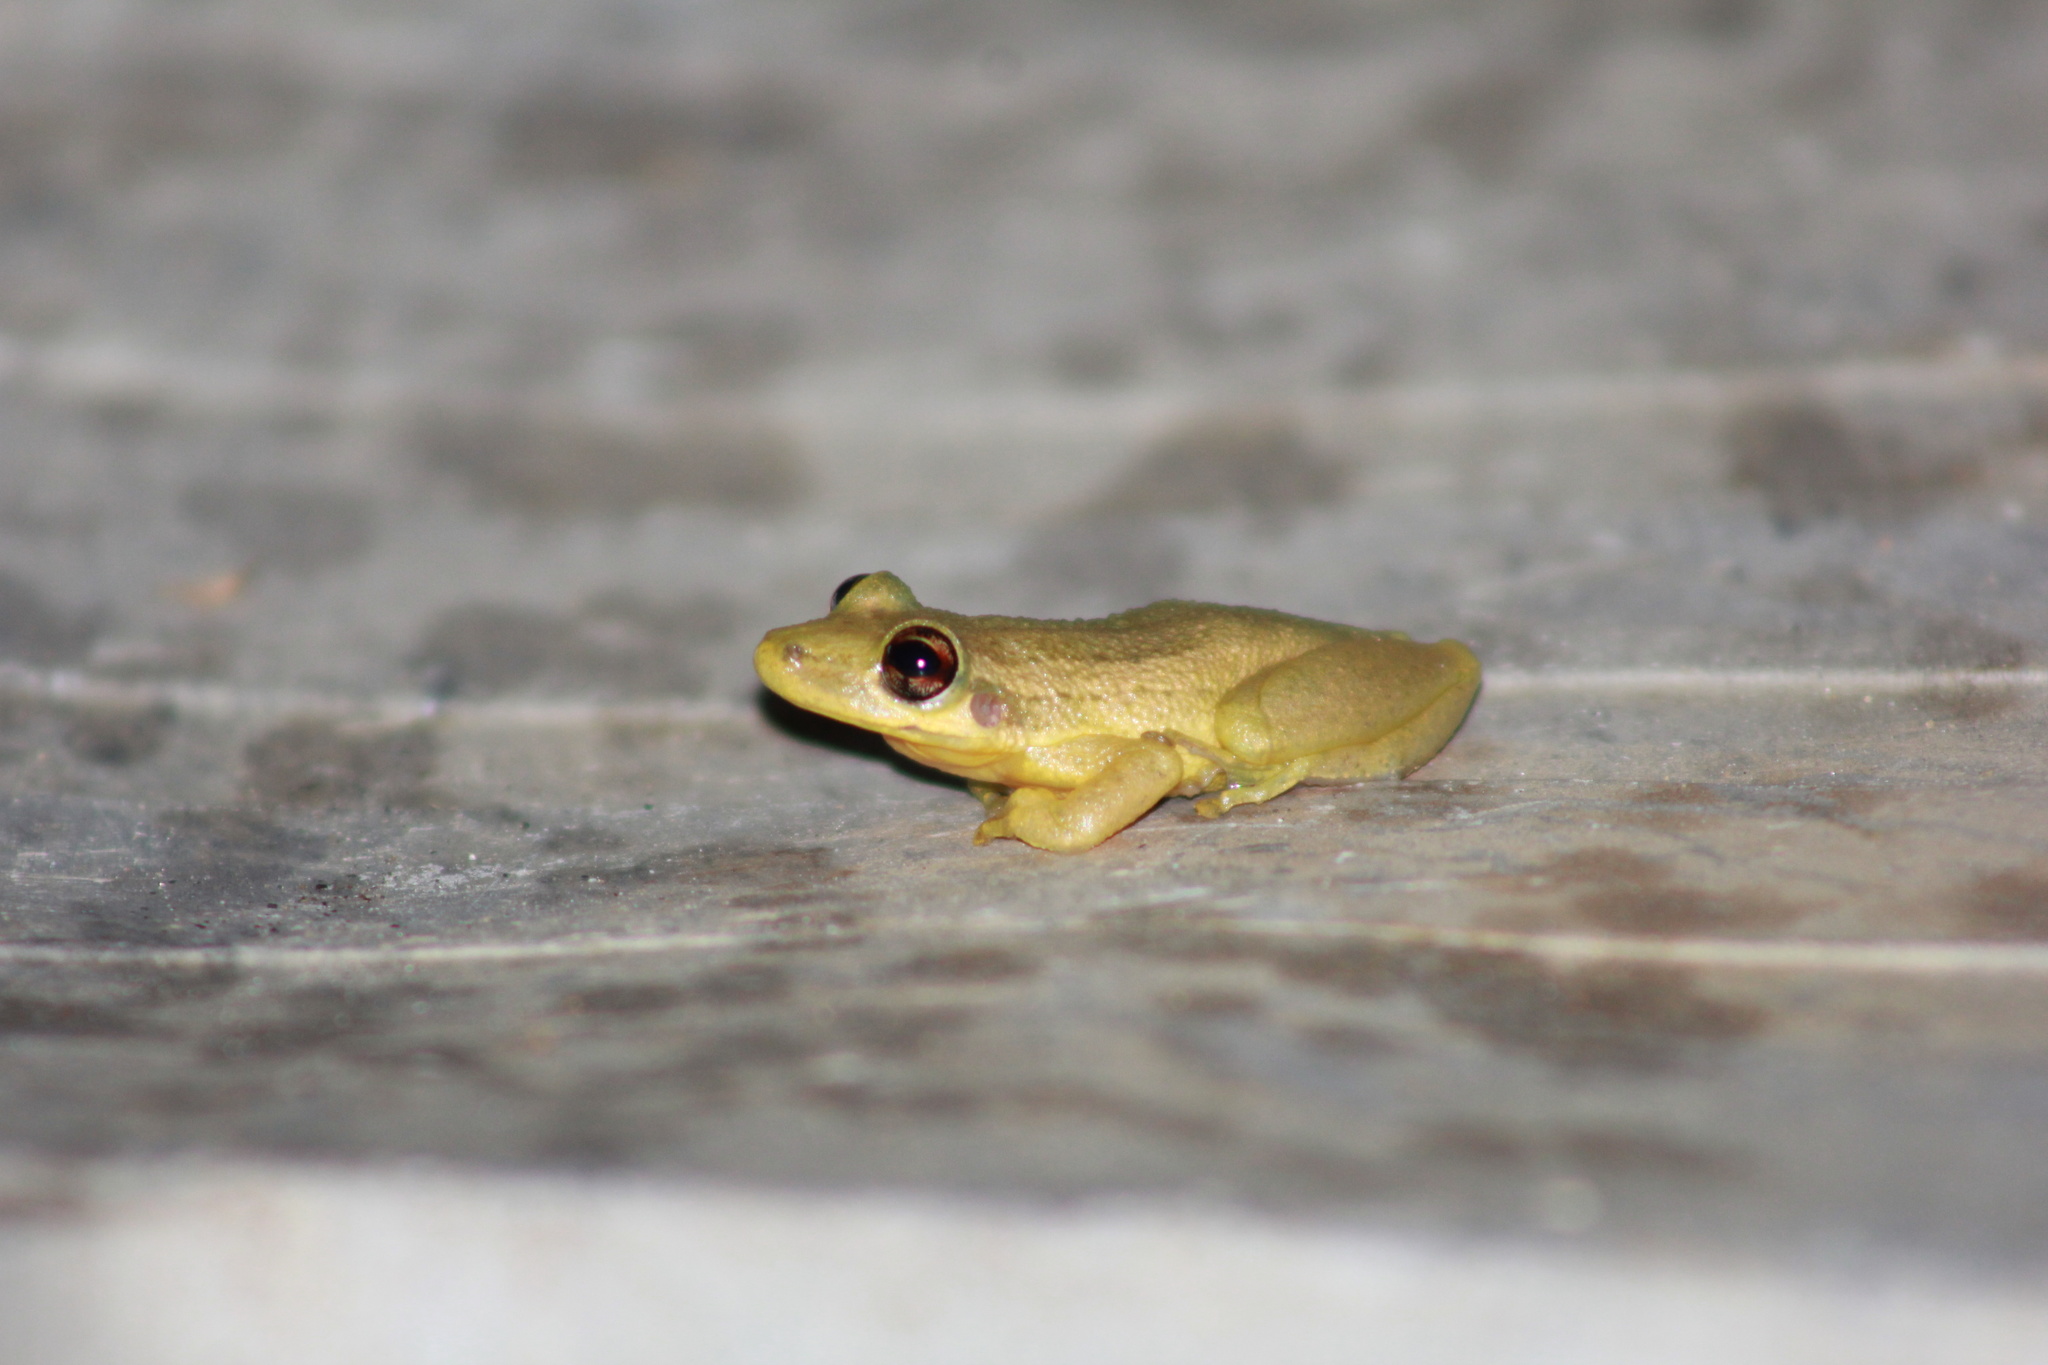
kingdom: Animalia
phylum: Chordata
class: Amphibia
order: Anura
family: Hylidae
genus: Scinax
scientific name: Scinax ruber
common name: Red snouted treefrog
